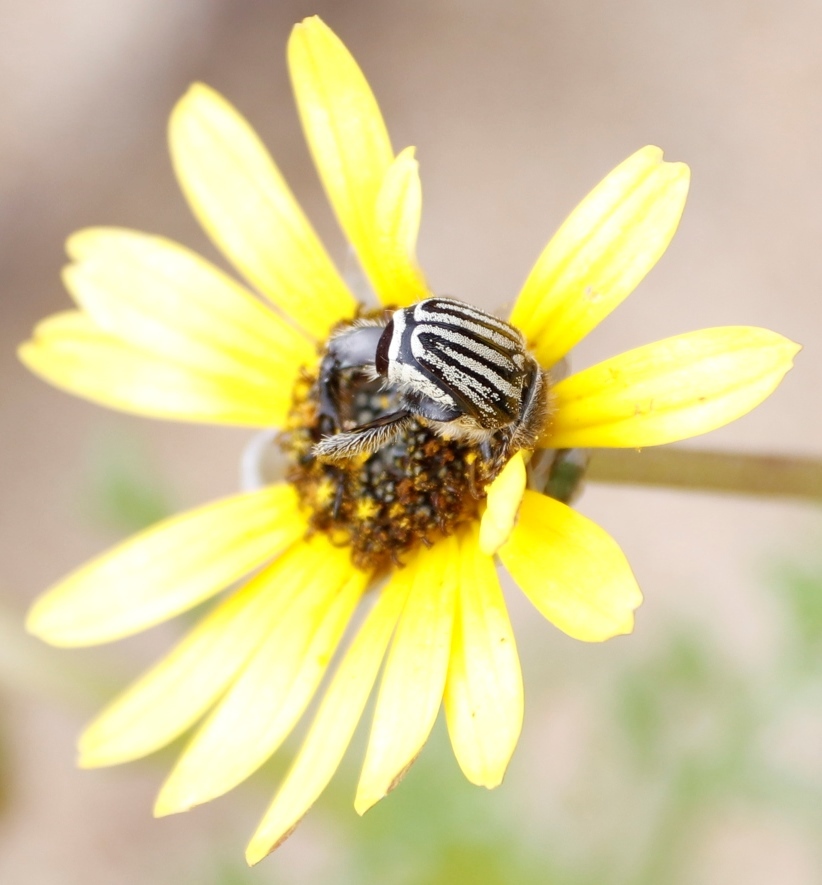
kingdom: Plantae
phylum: Tracheophyta
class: Magnoliopsida
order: Asterales
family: Asteraceae
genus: Ursinia
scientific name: Ursinia chrysanthemoides
